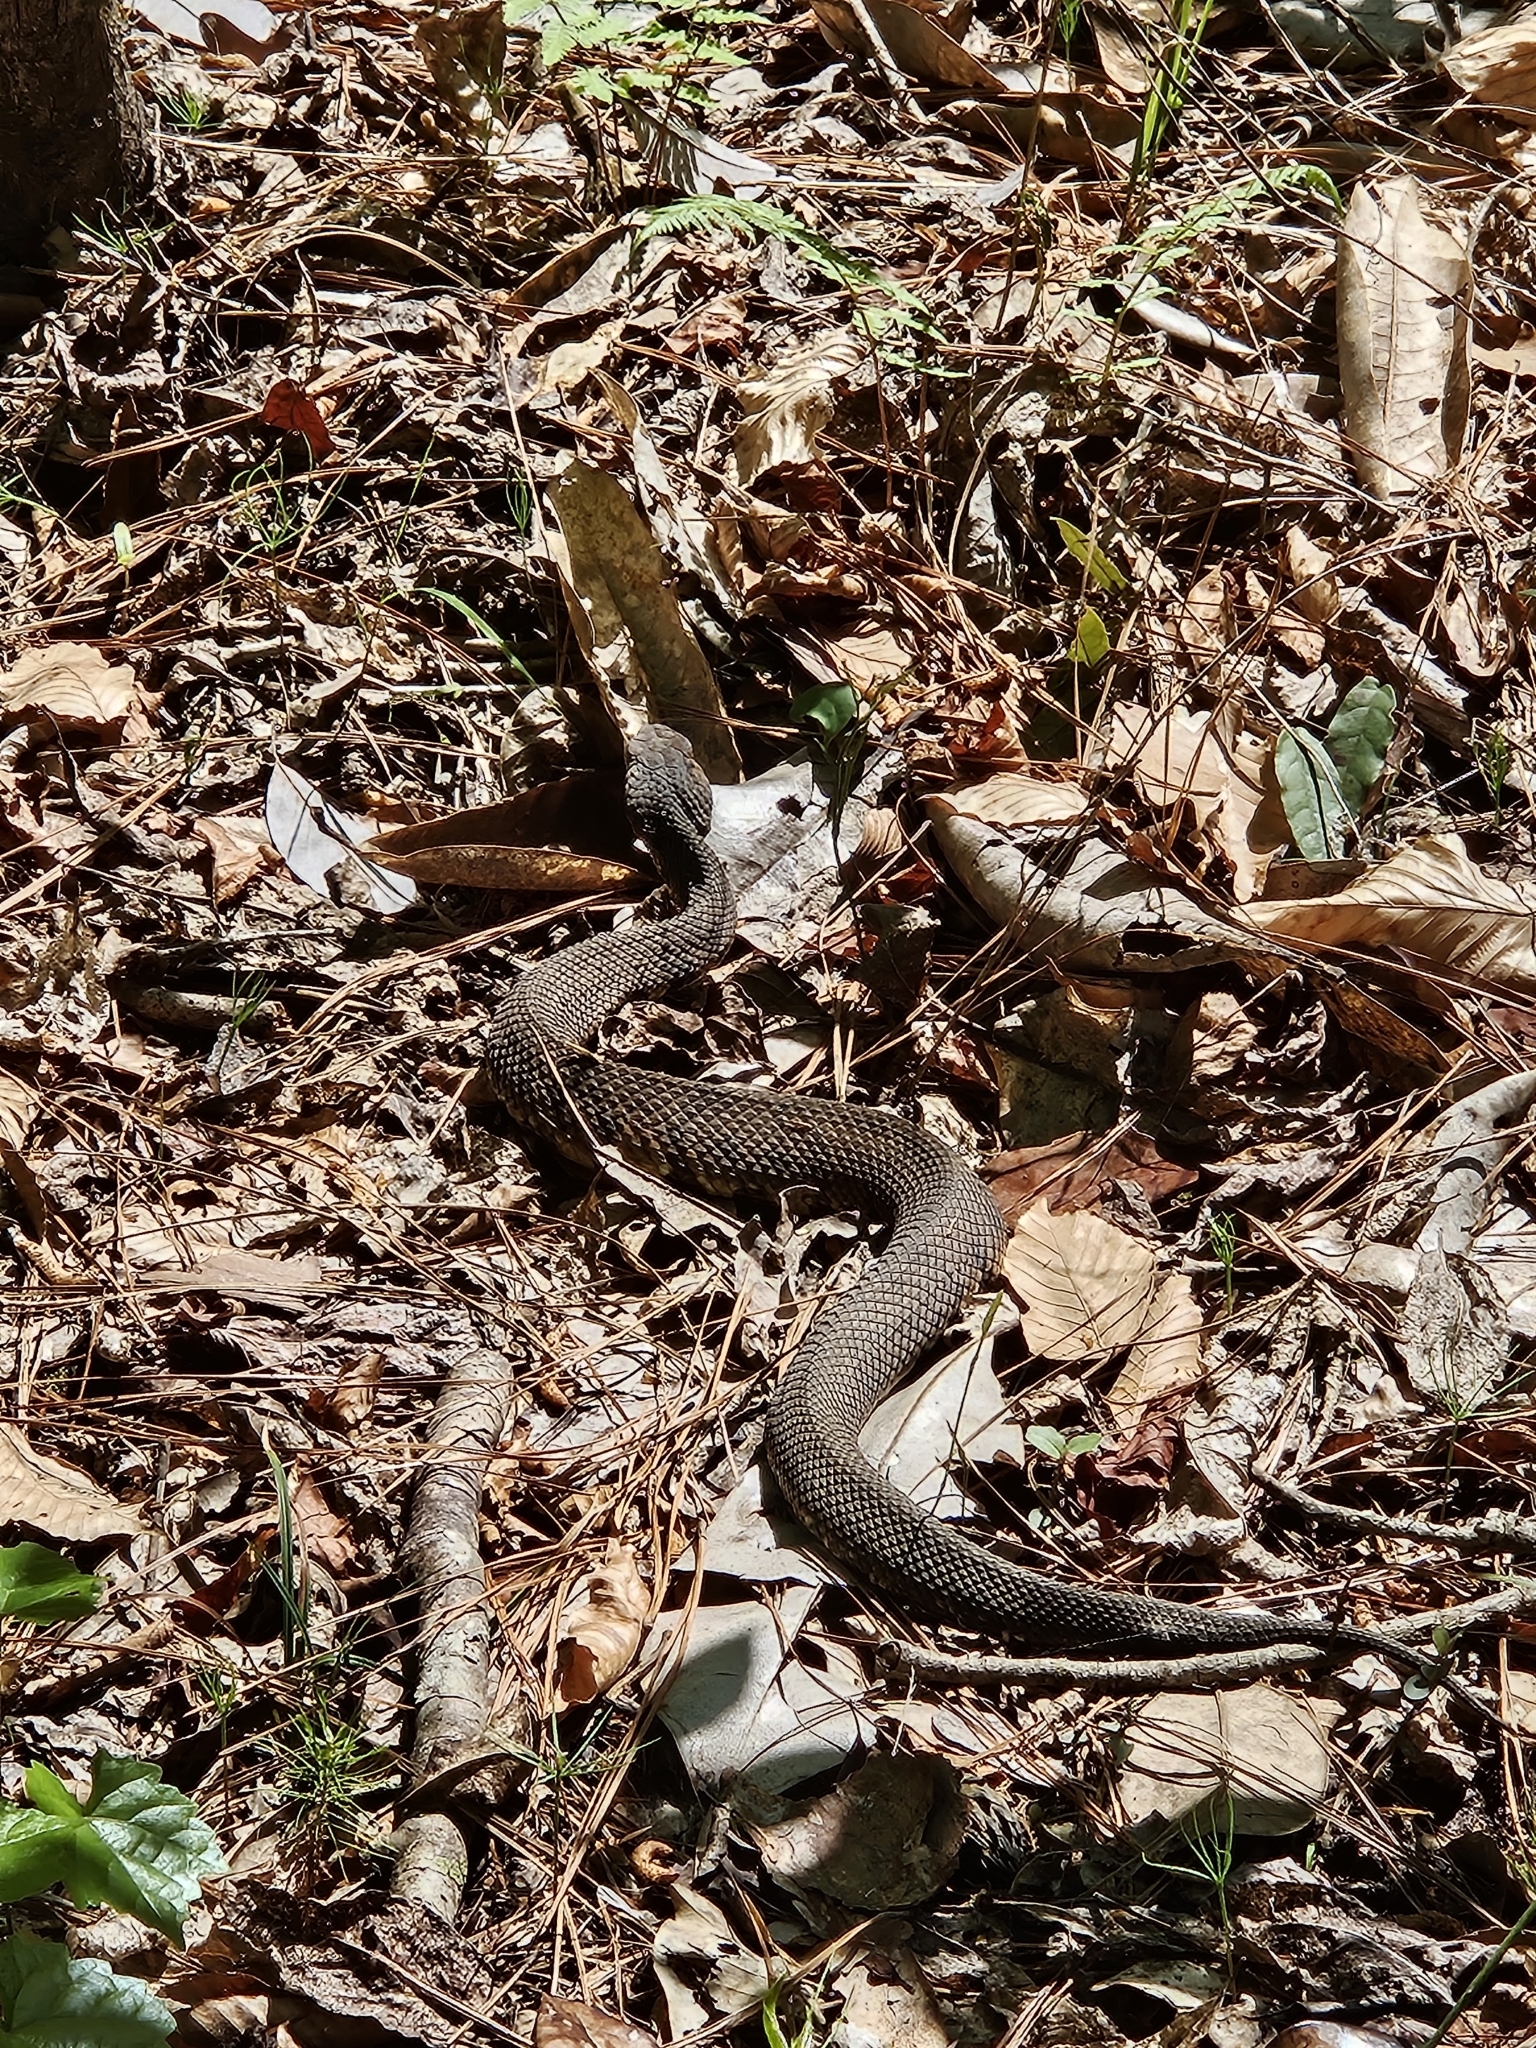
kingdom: Animalia
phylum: Chordata
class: Squamata
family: Viperidae
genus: Agkistrodon
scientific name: Agkistrodon piscivorus
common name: Cottonmouth
